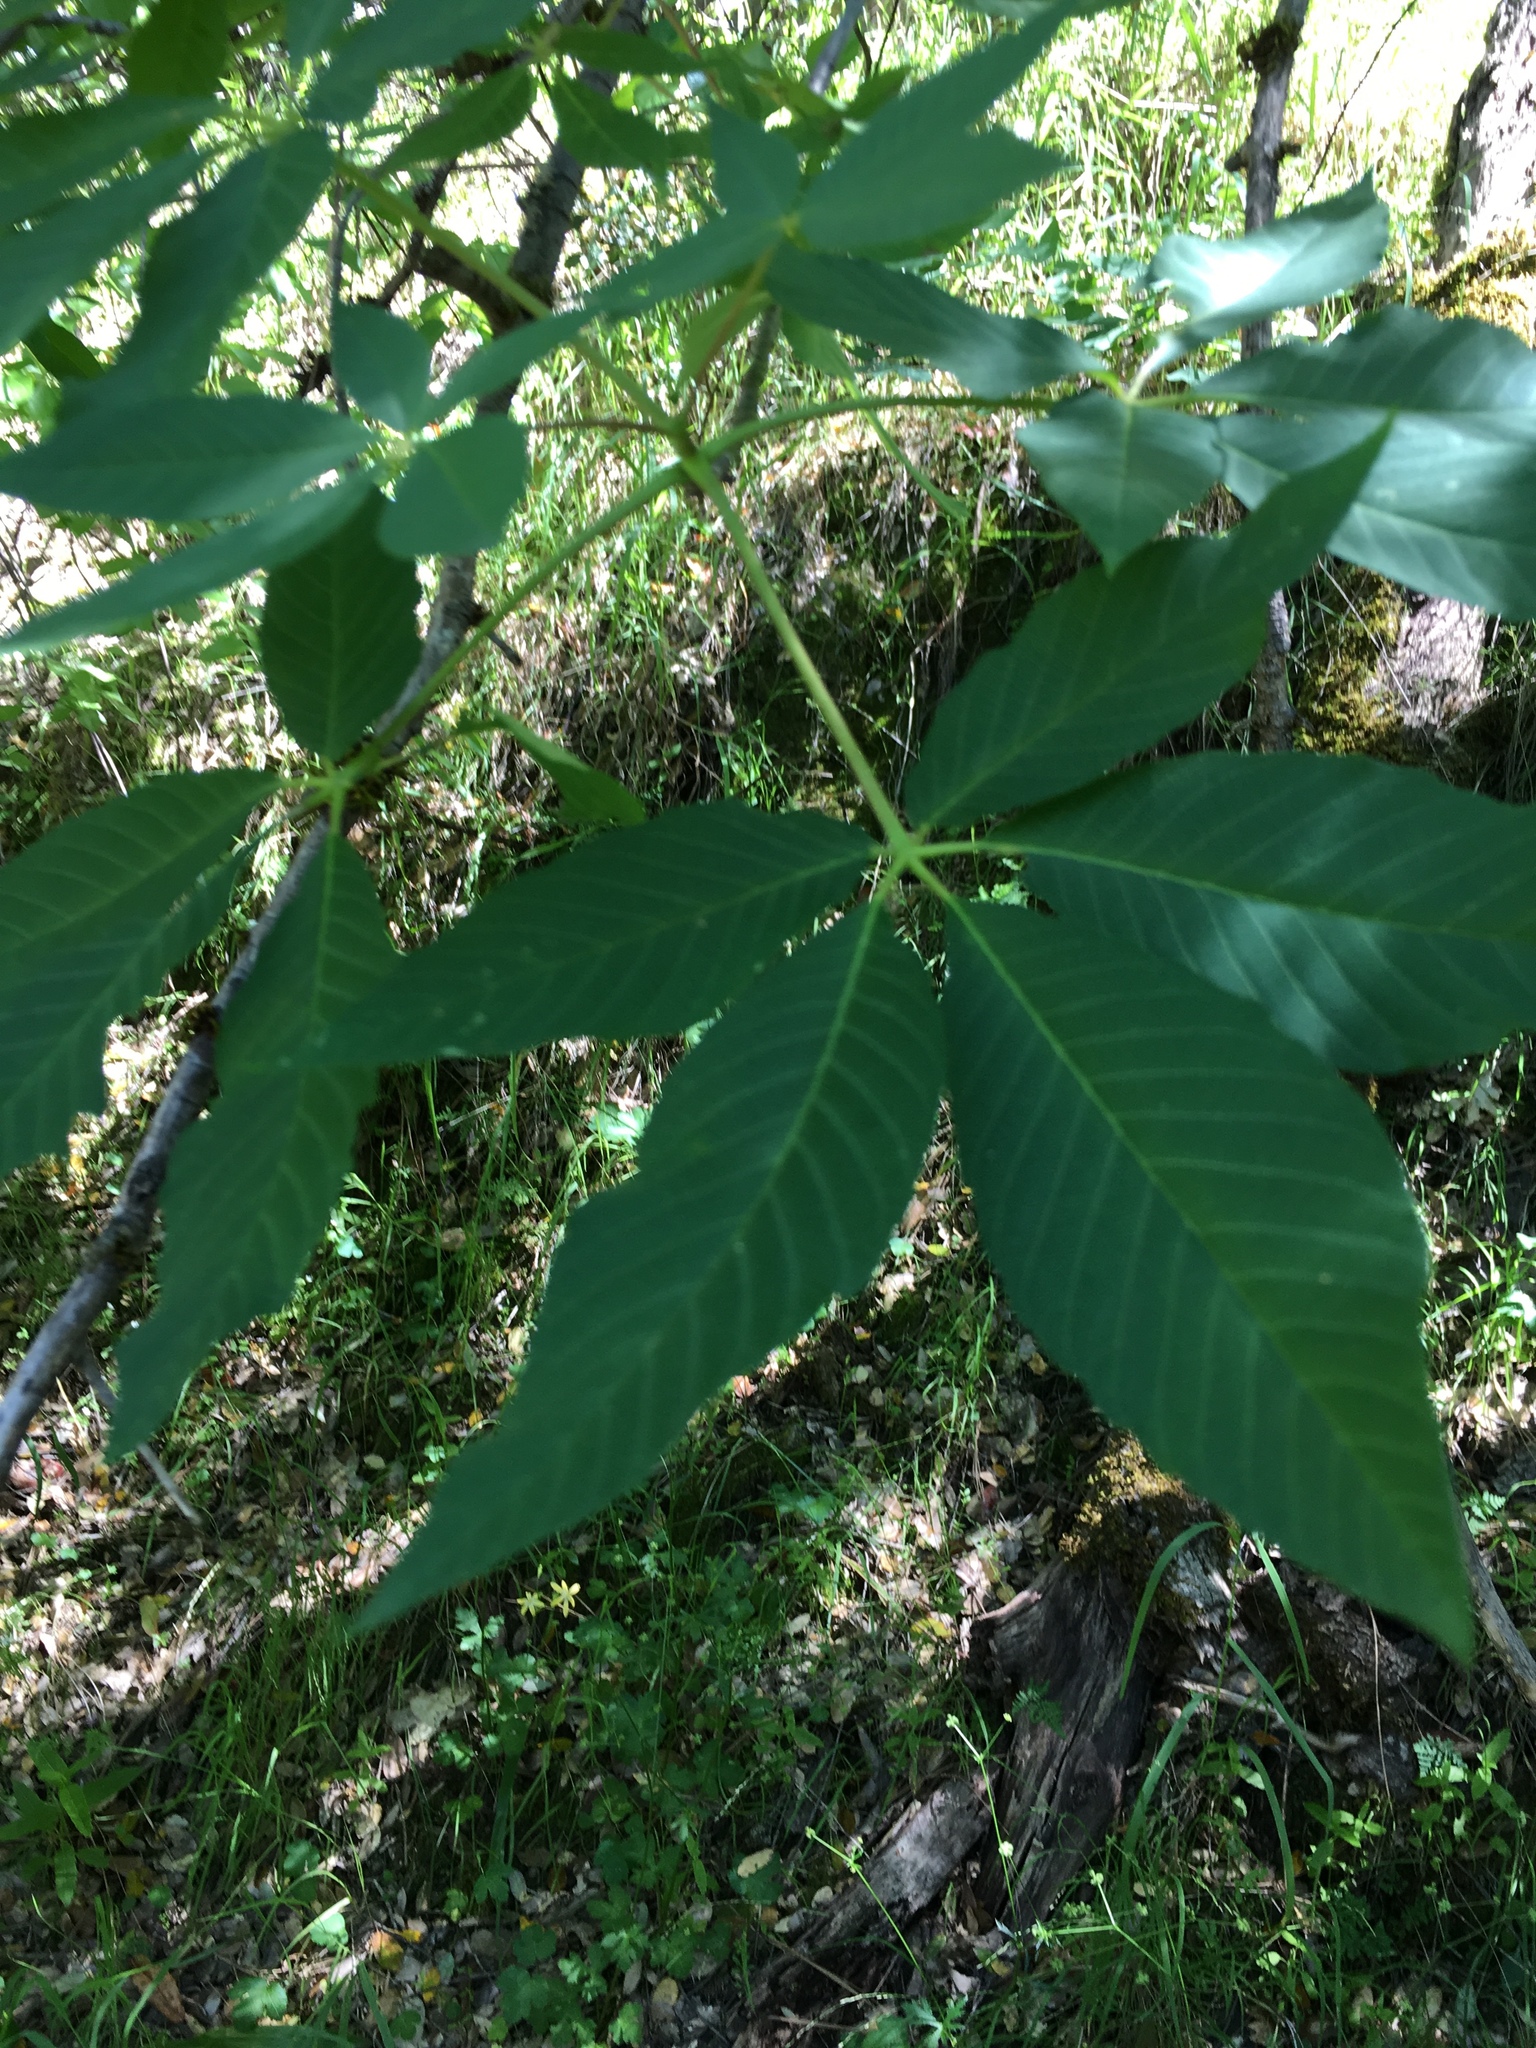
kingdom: Plantae
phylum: Tracheophyta
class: Magnoliopsida
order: Sapindales
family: Sapindaceae
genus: Aesculus
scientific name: Aesculus californica
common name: California buckeye
